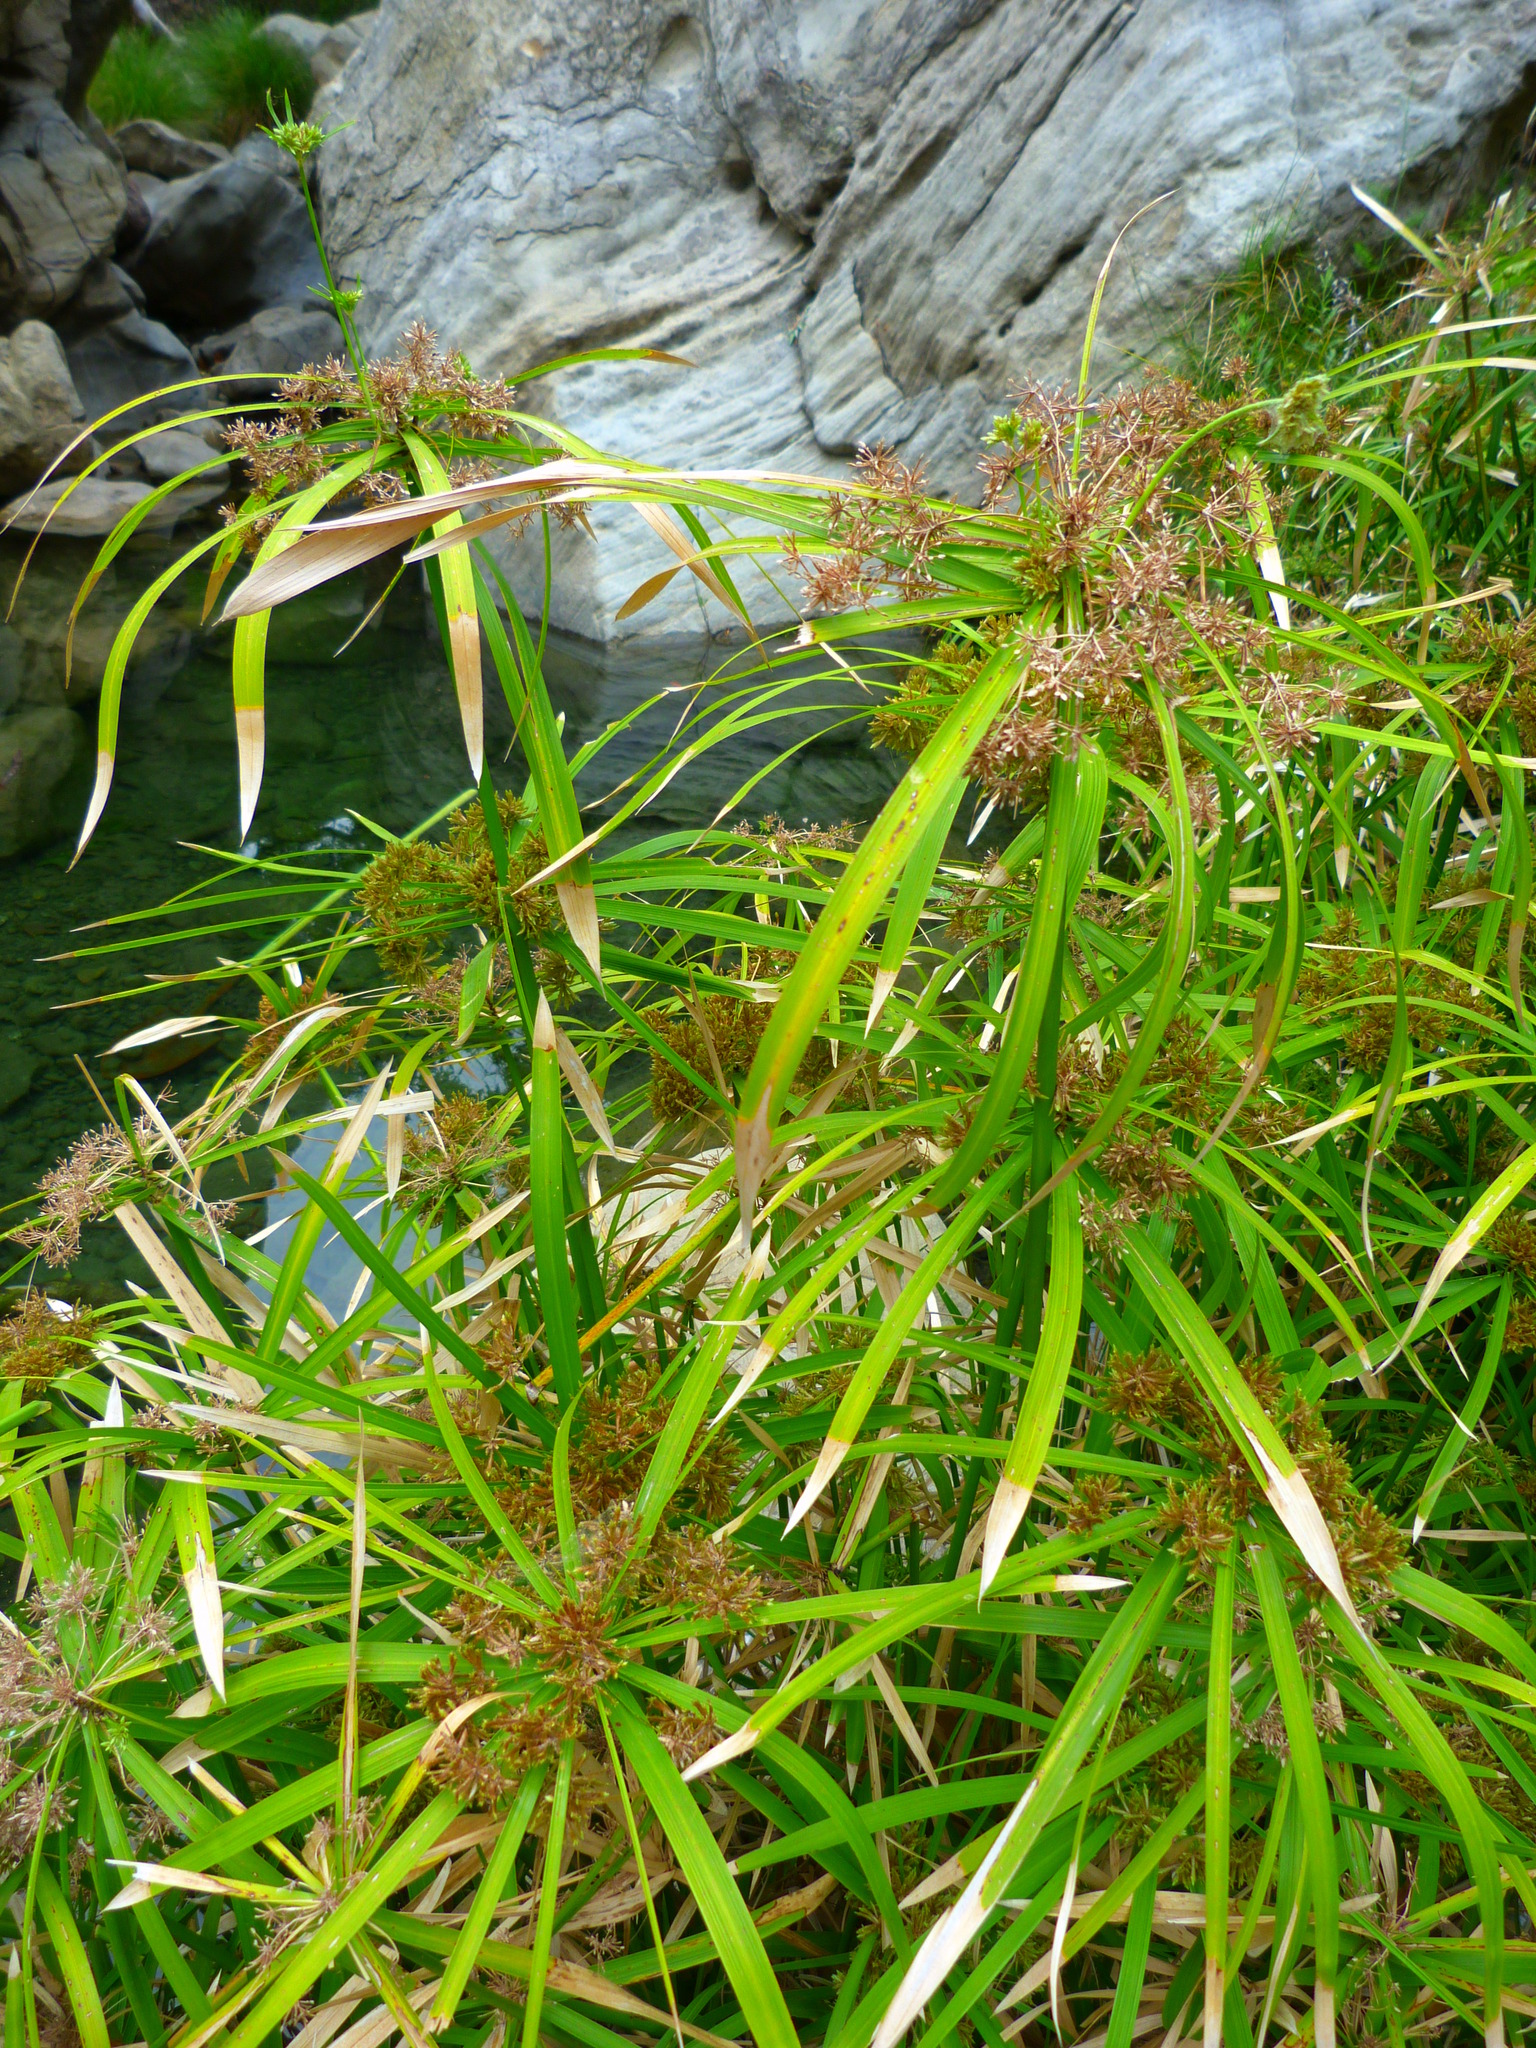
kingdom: Plantae
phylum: Tracheophyta
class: Liliopsida
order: Poales
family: Cyperaceae
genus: Cyperus
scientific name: Cyperus alternifolius
